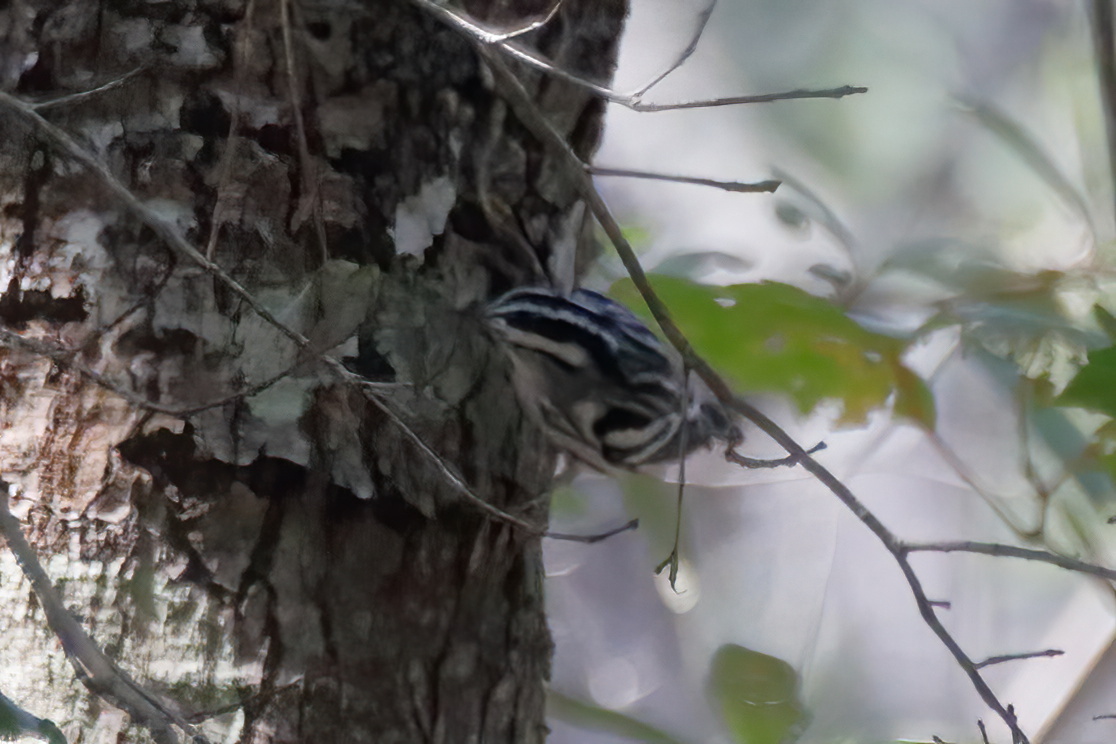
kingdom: Animalia
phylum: Chordata
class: Aves
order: Passeriformes
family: Parulidae
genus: Mniotilta
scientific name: Mniotilta varia
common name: Black-and-white warbler
